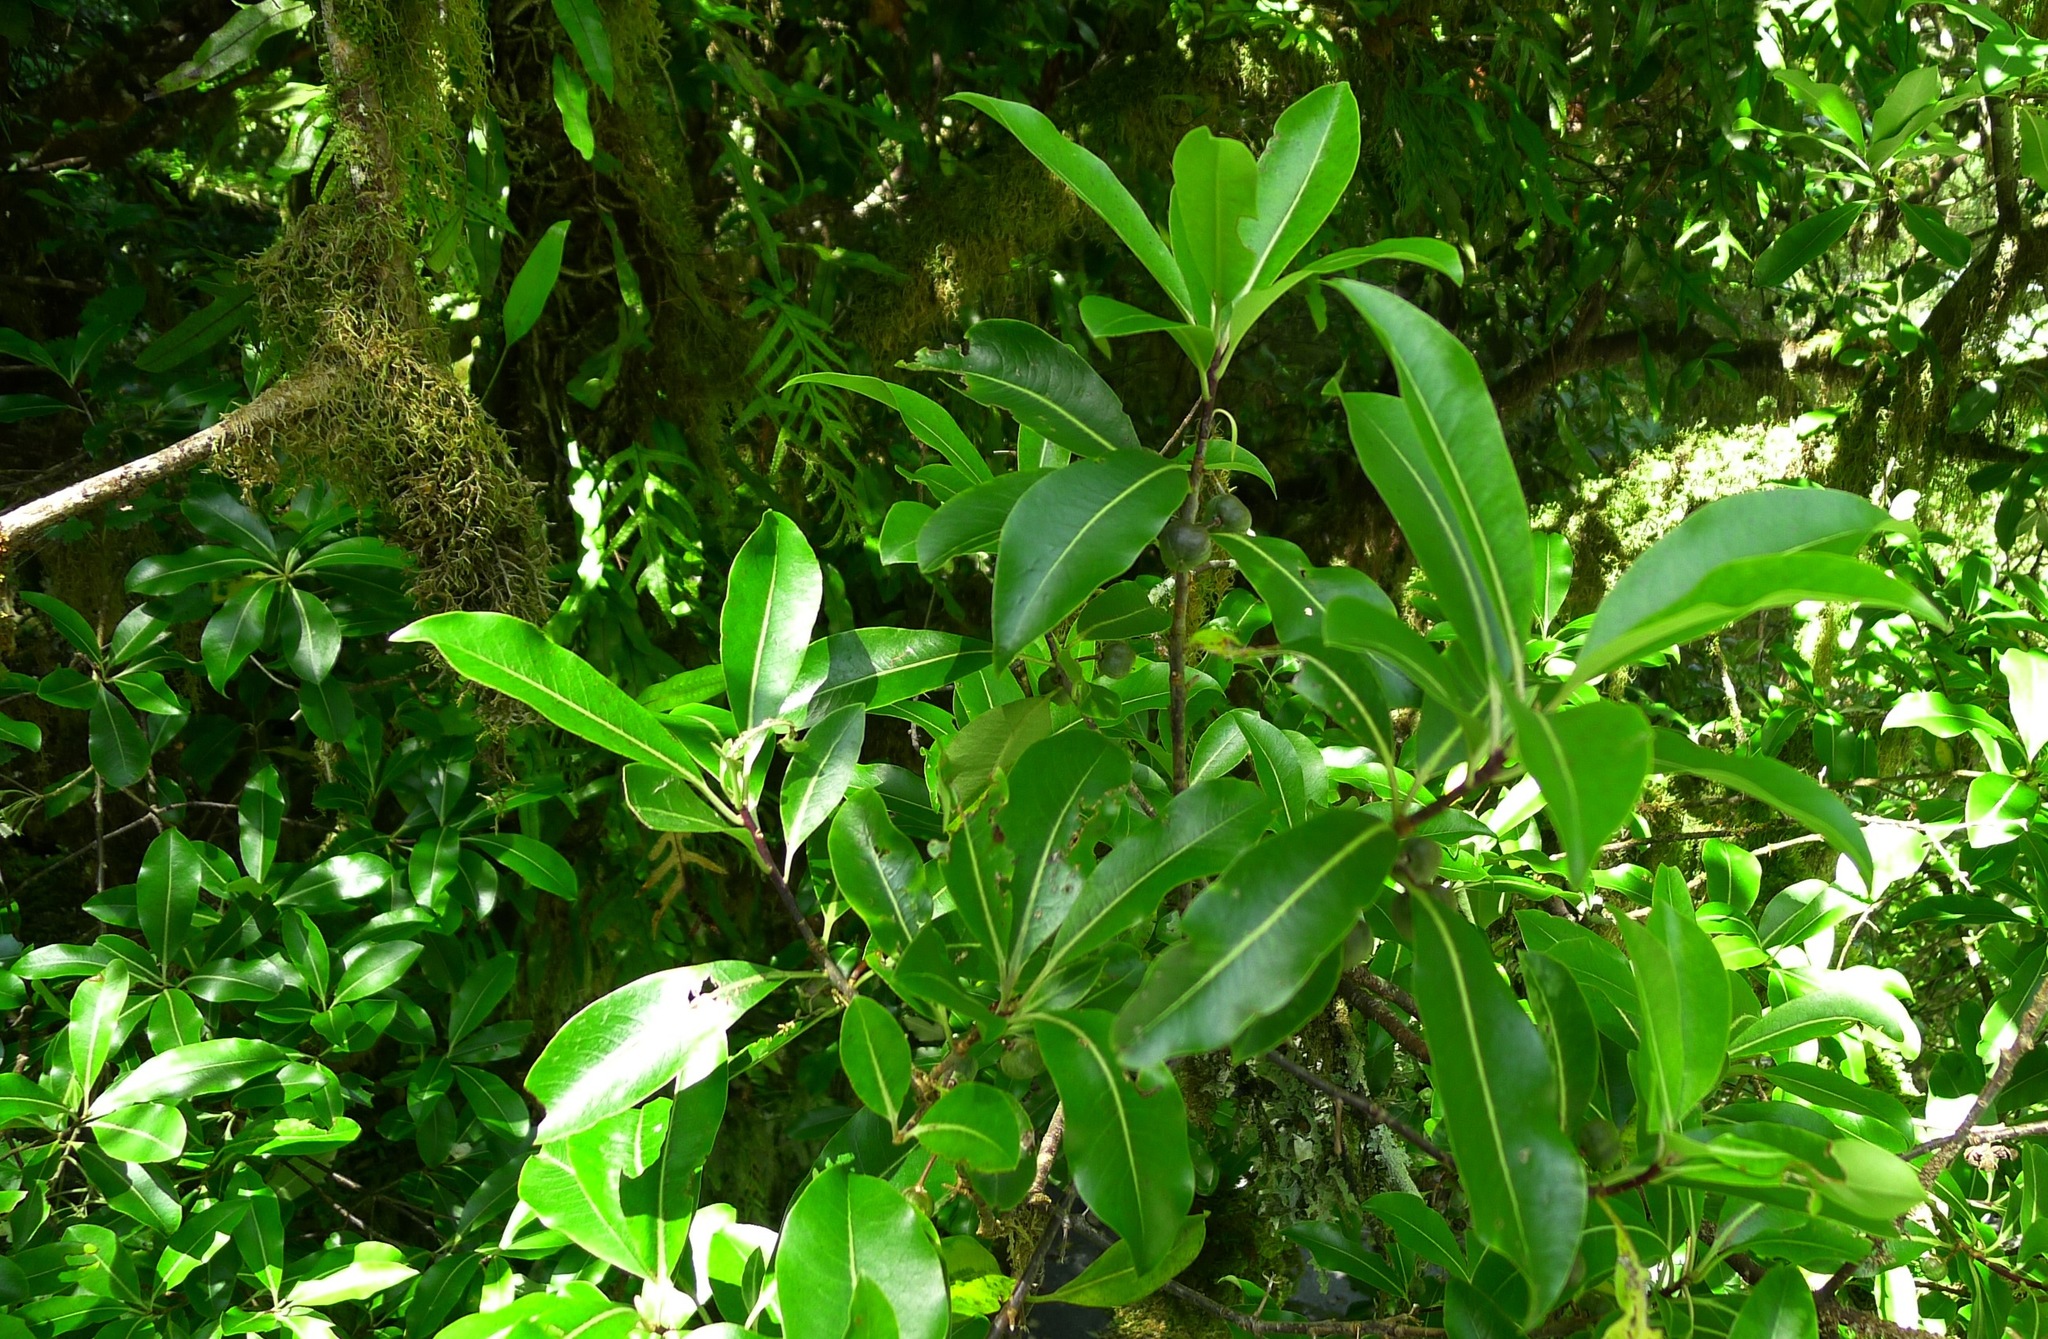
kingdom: Plantae
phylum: Tracheophyta
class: Magnoliopsida
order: Apiales
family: Pittosporaceae
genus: Pittosporum
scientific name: Pittosporum colensoi
